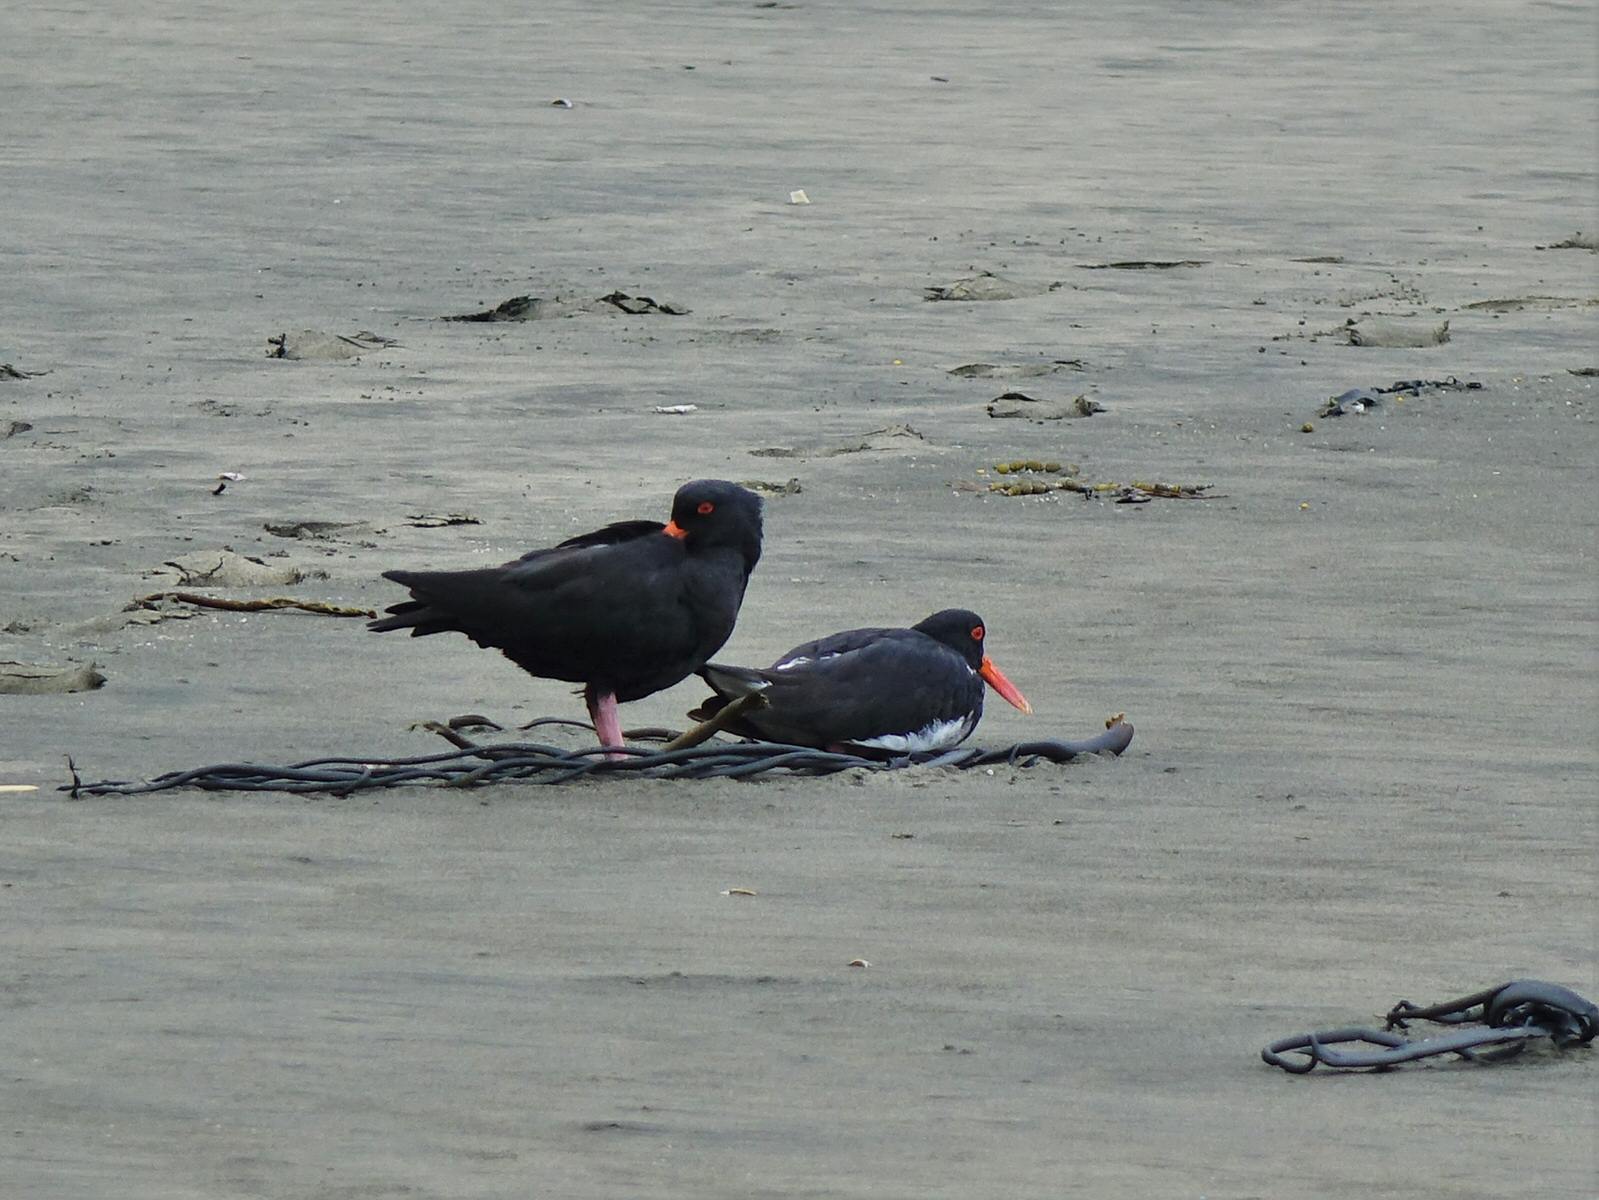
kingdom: Animalia
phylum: Chordata
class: Aves
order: Charadriiformes
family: Haematopodidae
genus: Haematopus
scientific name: Haematopus unicolor
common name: Variable oystercatcher
